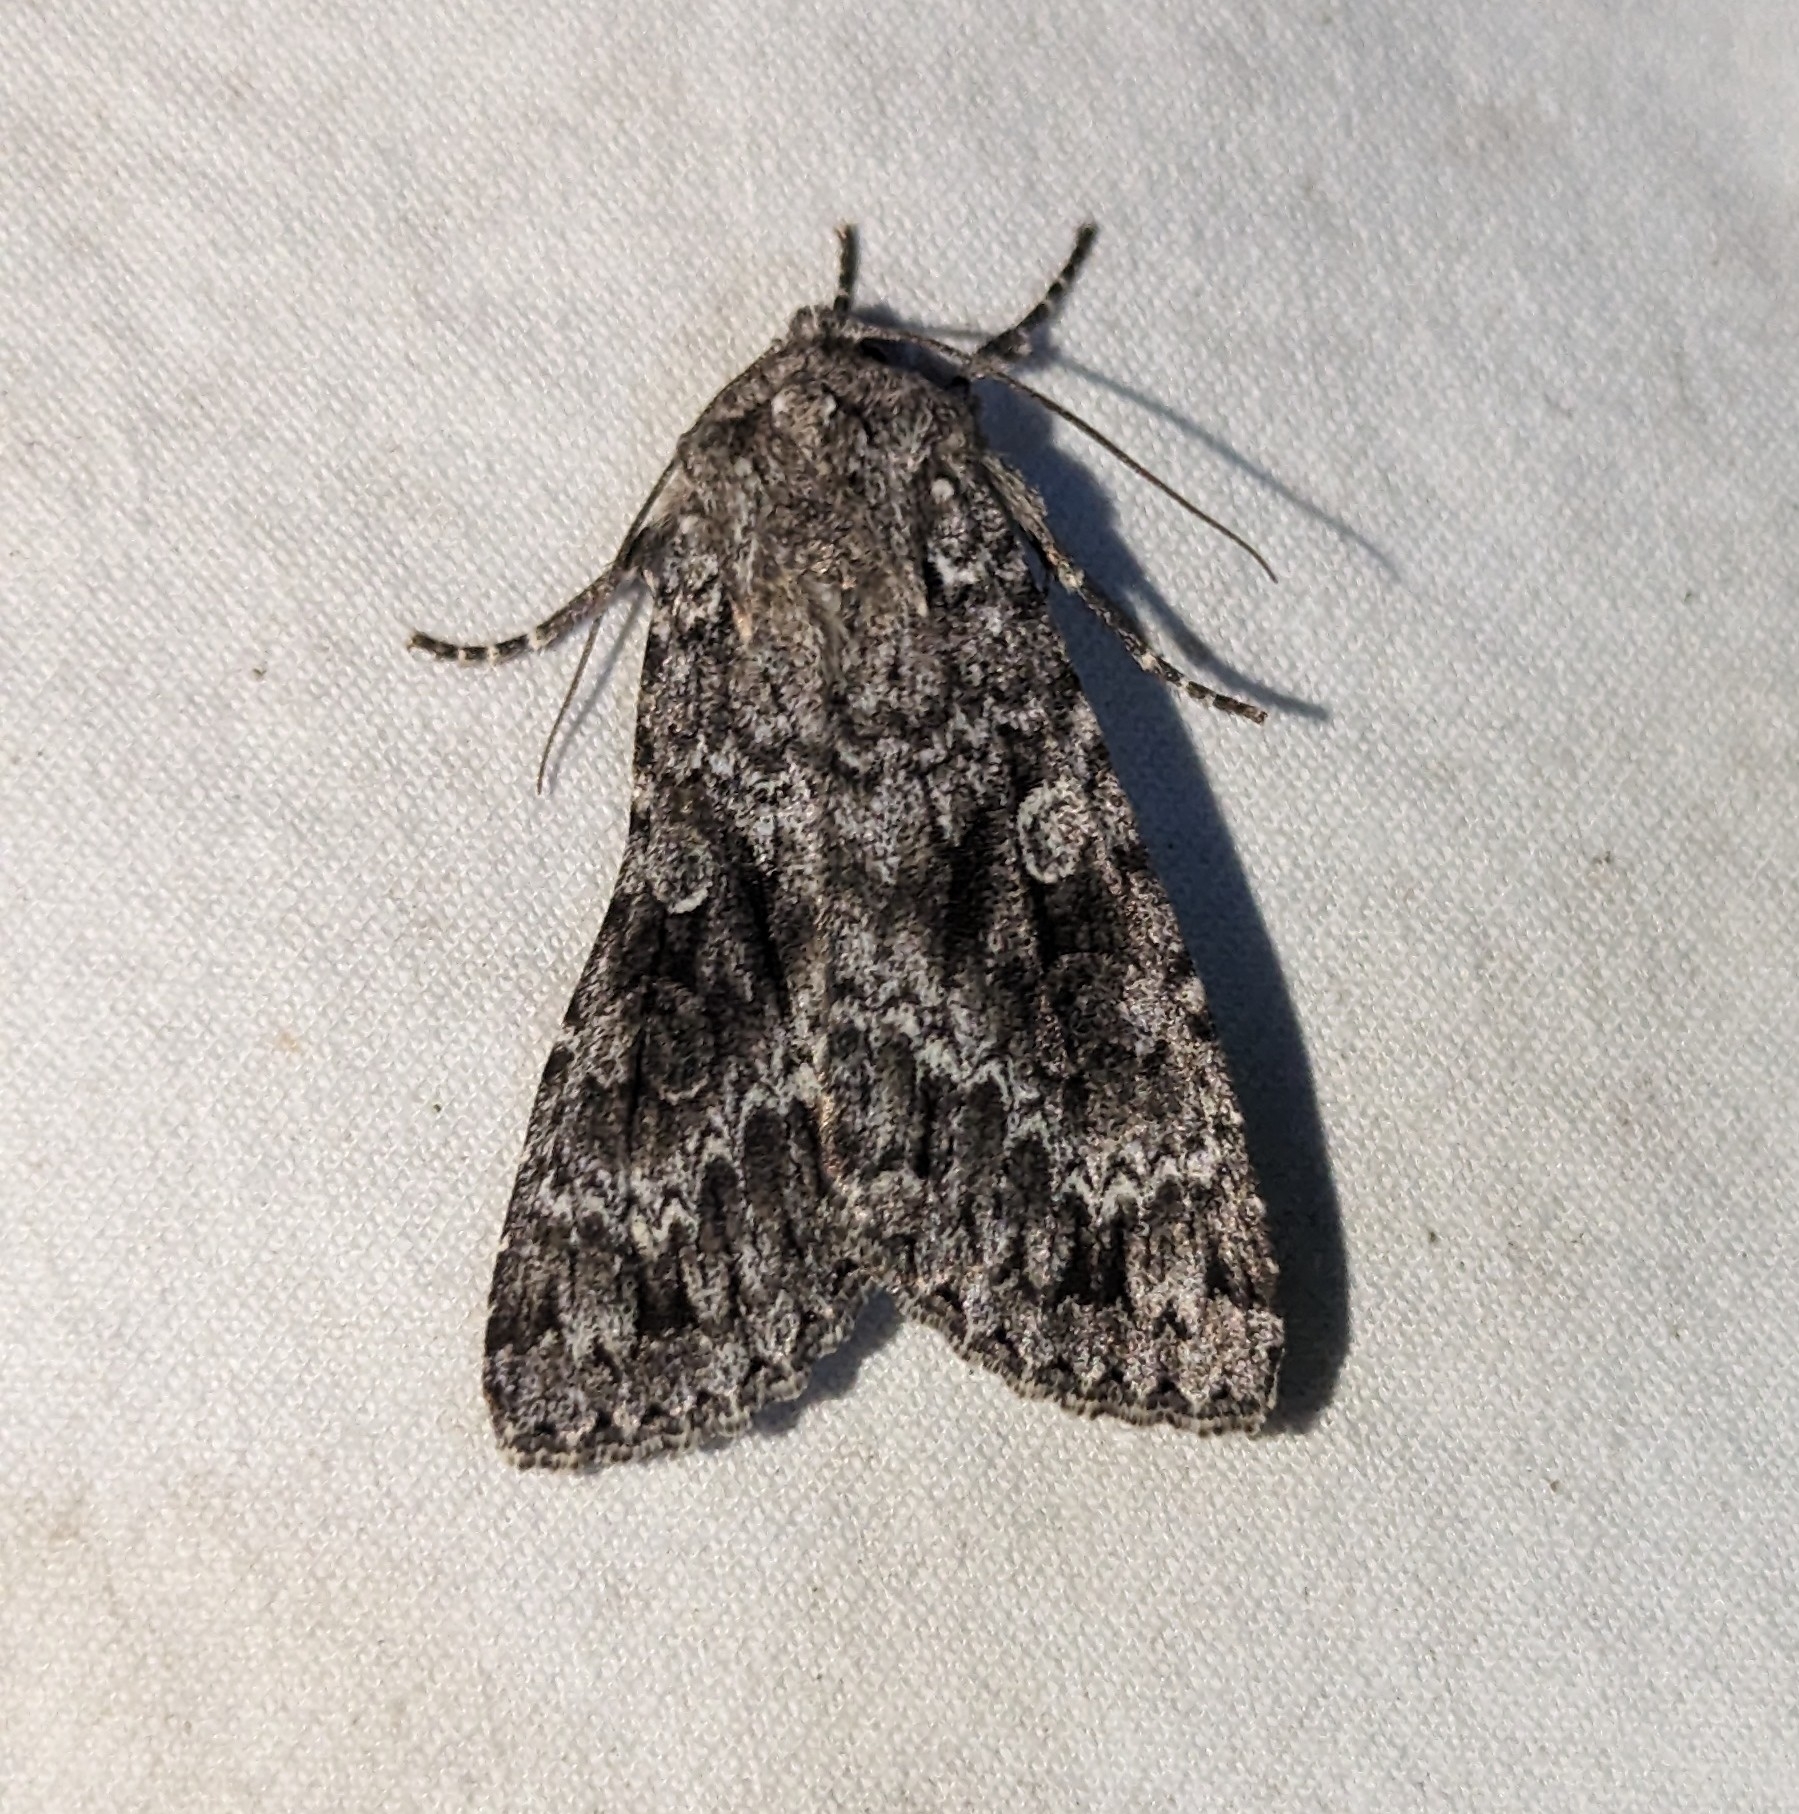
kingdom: Animalia
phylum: Arthropoda
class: Insecta
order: Lepidoptera
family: Noctuidae
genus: Eurois
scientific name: Eurois occulta
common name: Great brocade
